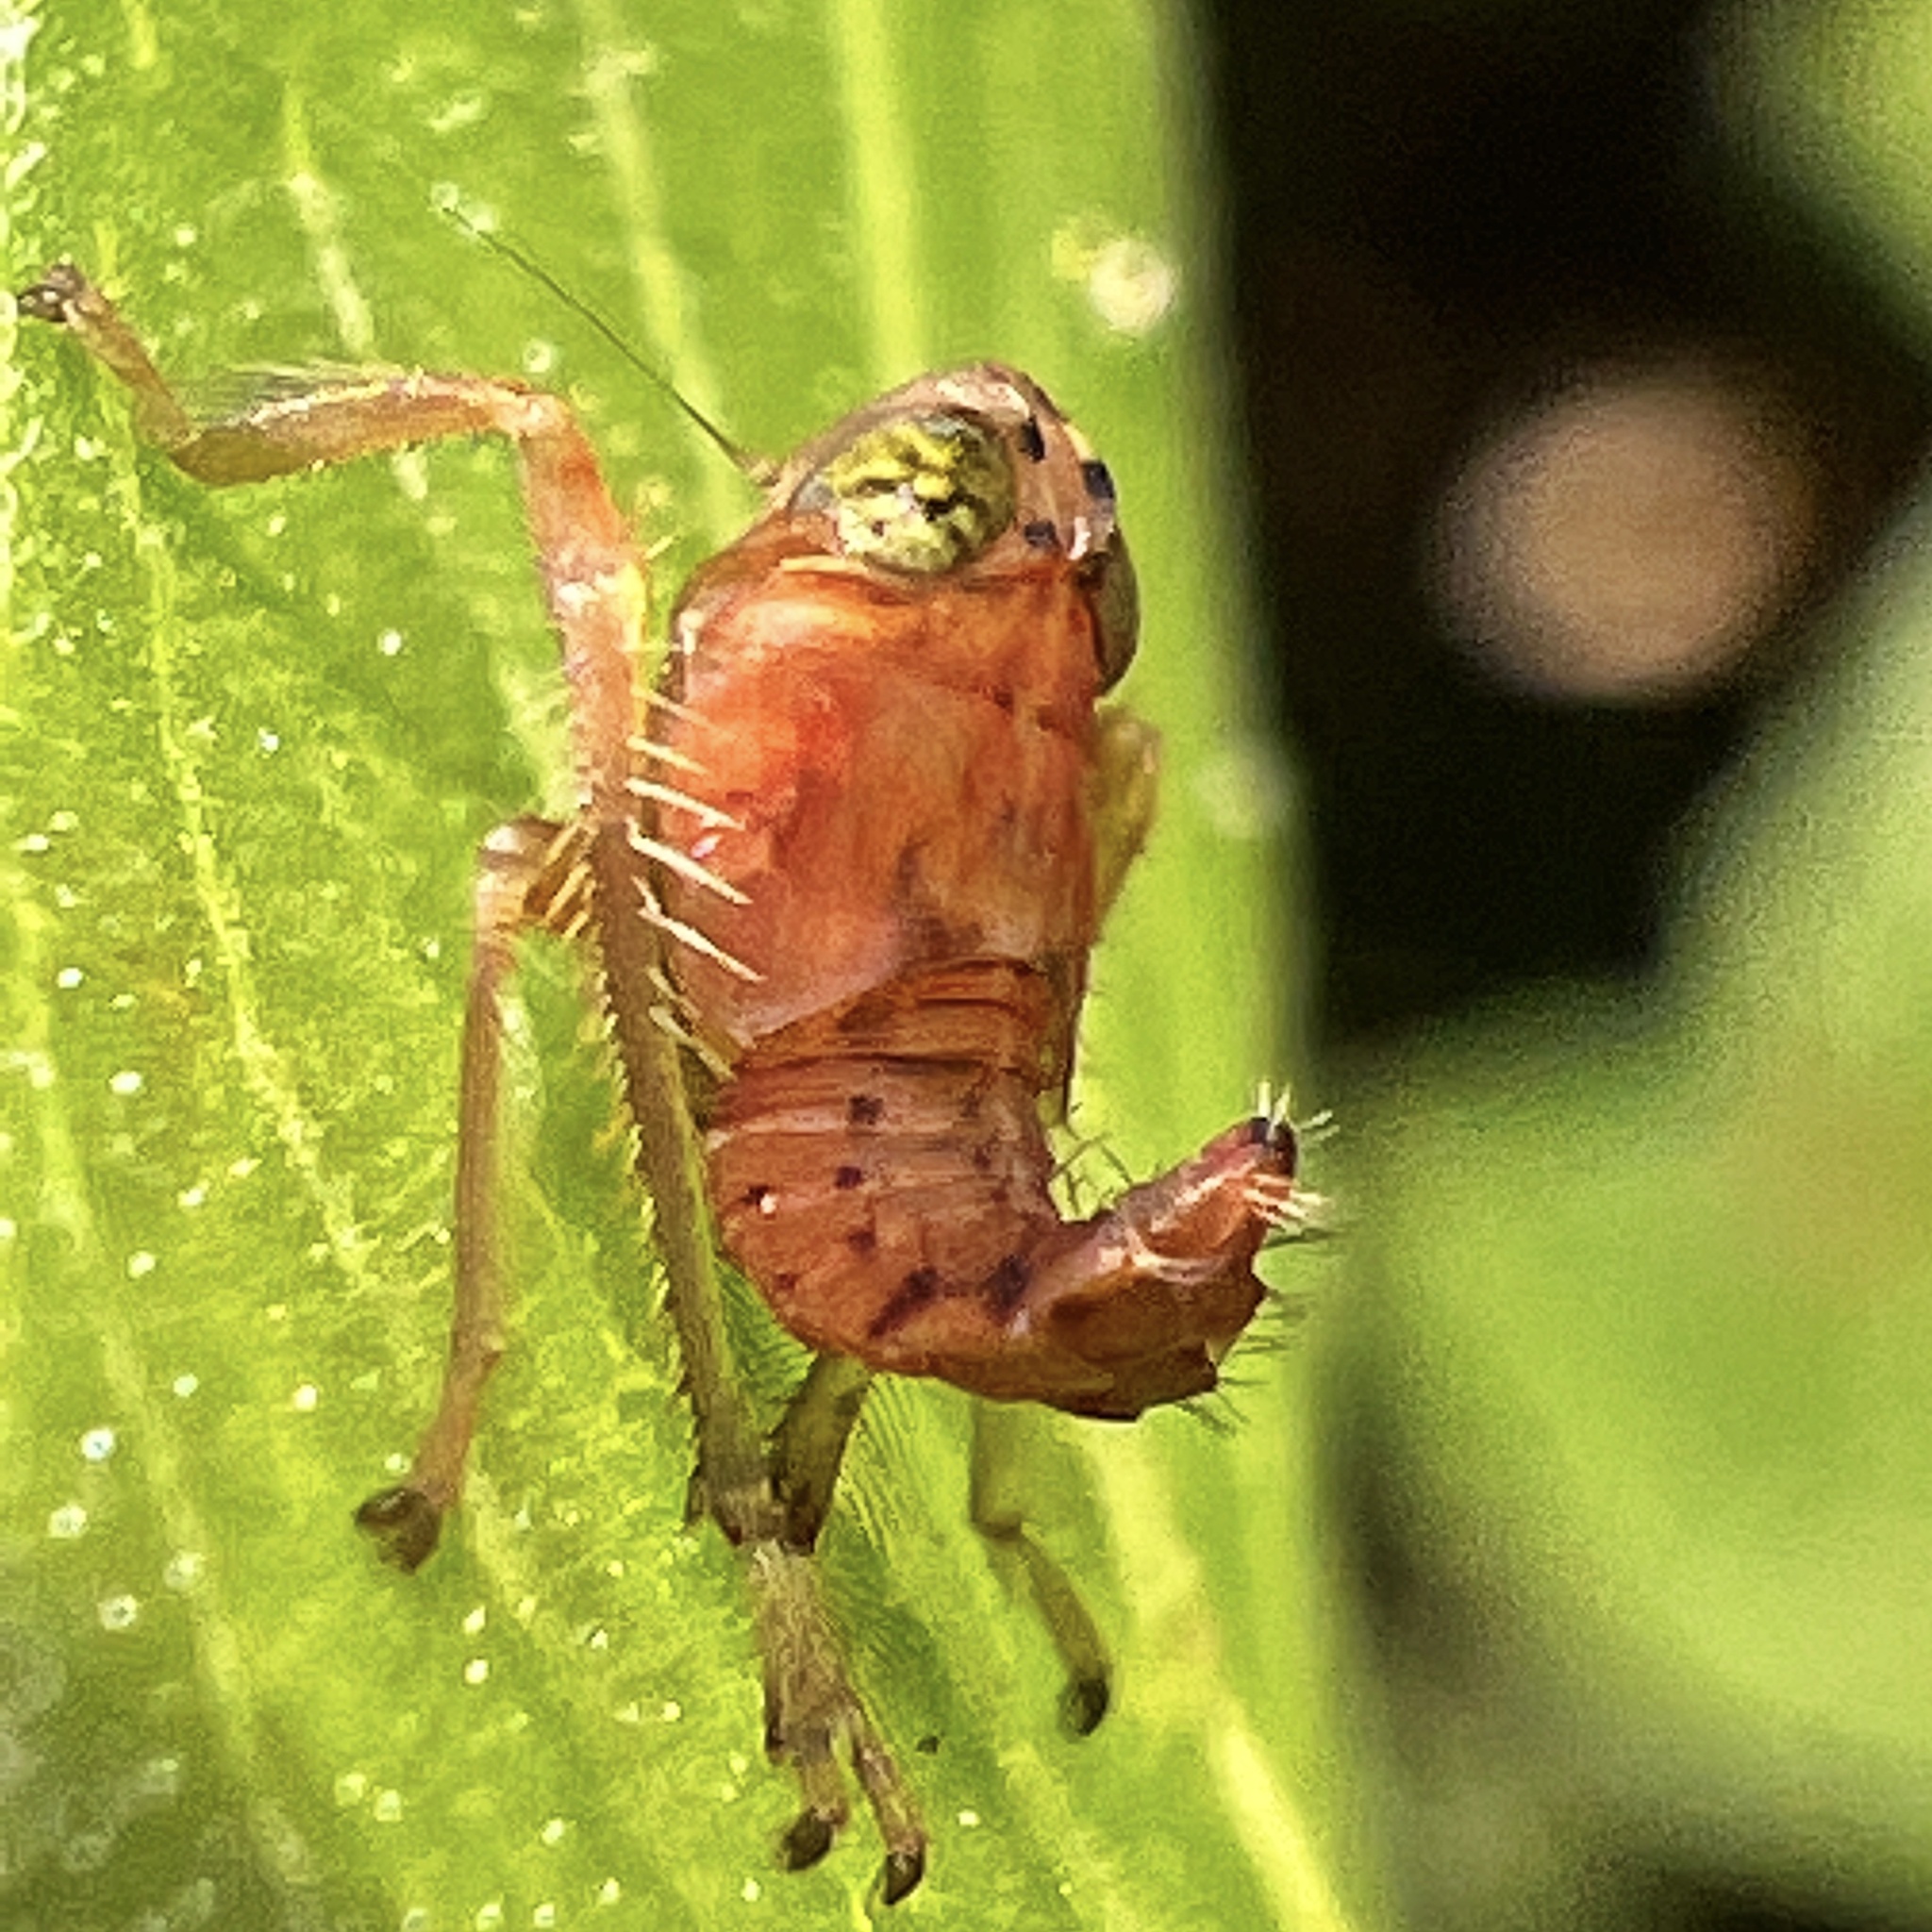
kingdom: Animalia
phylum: Arthropoda
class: Insecta
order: Hemiptera
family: Cicadellidae
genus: Jikradia
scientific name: Jikradia olitoria
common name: Coppery leafhopper
